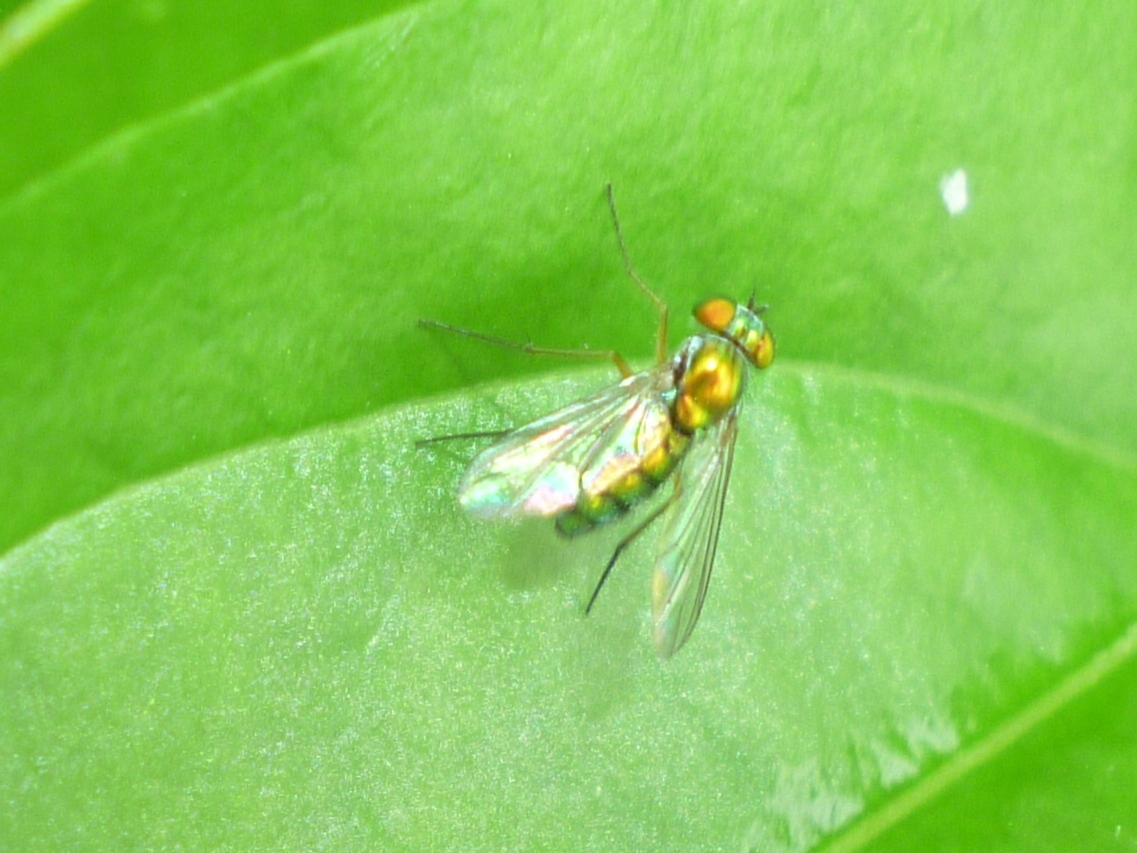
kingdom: Animalia
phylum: Arthropoda
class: Insecta
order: Diptera
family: Dolichopodidae
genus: Condylostylus
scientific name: Condylostylus
